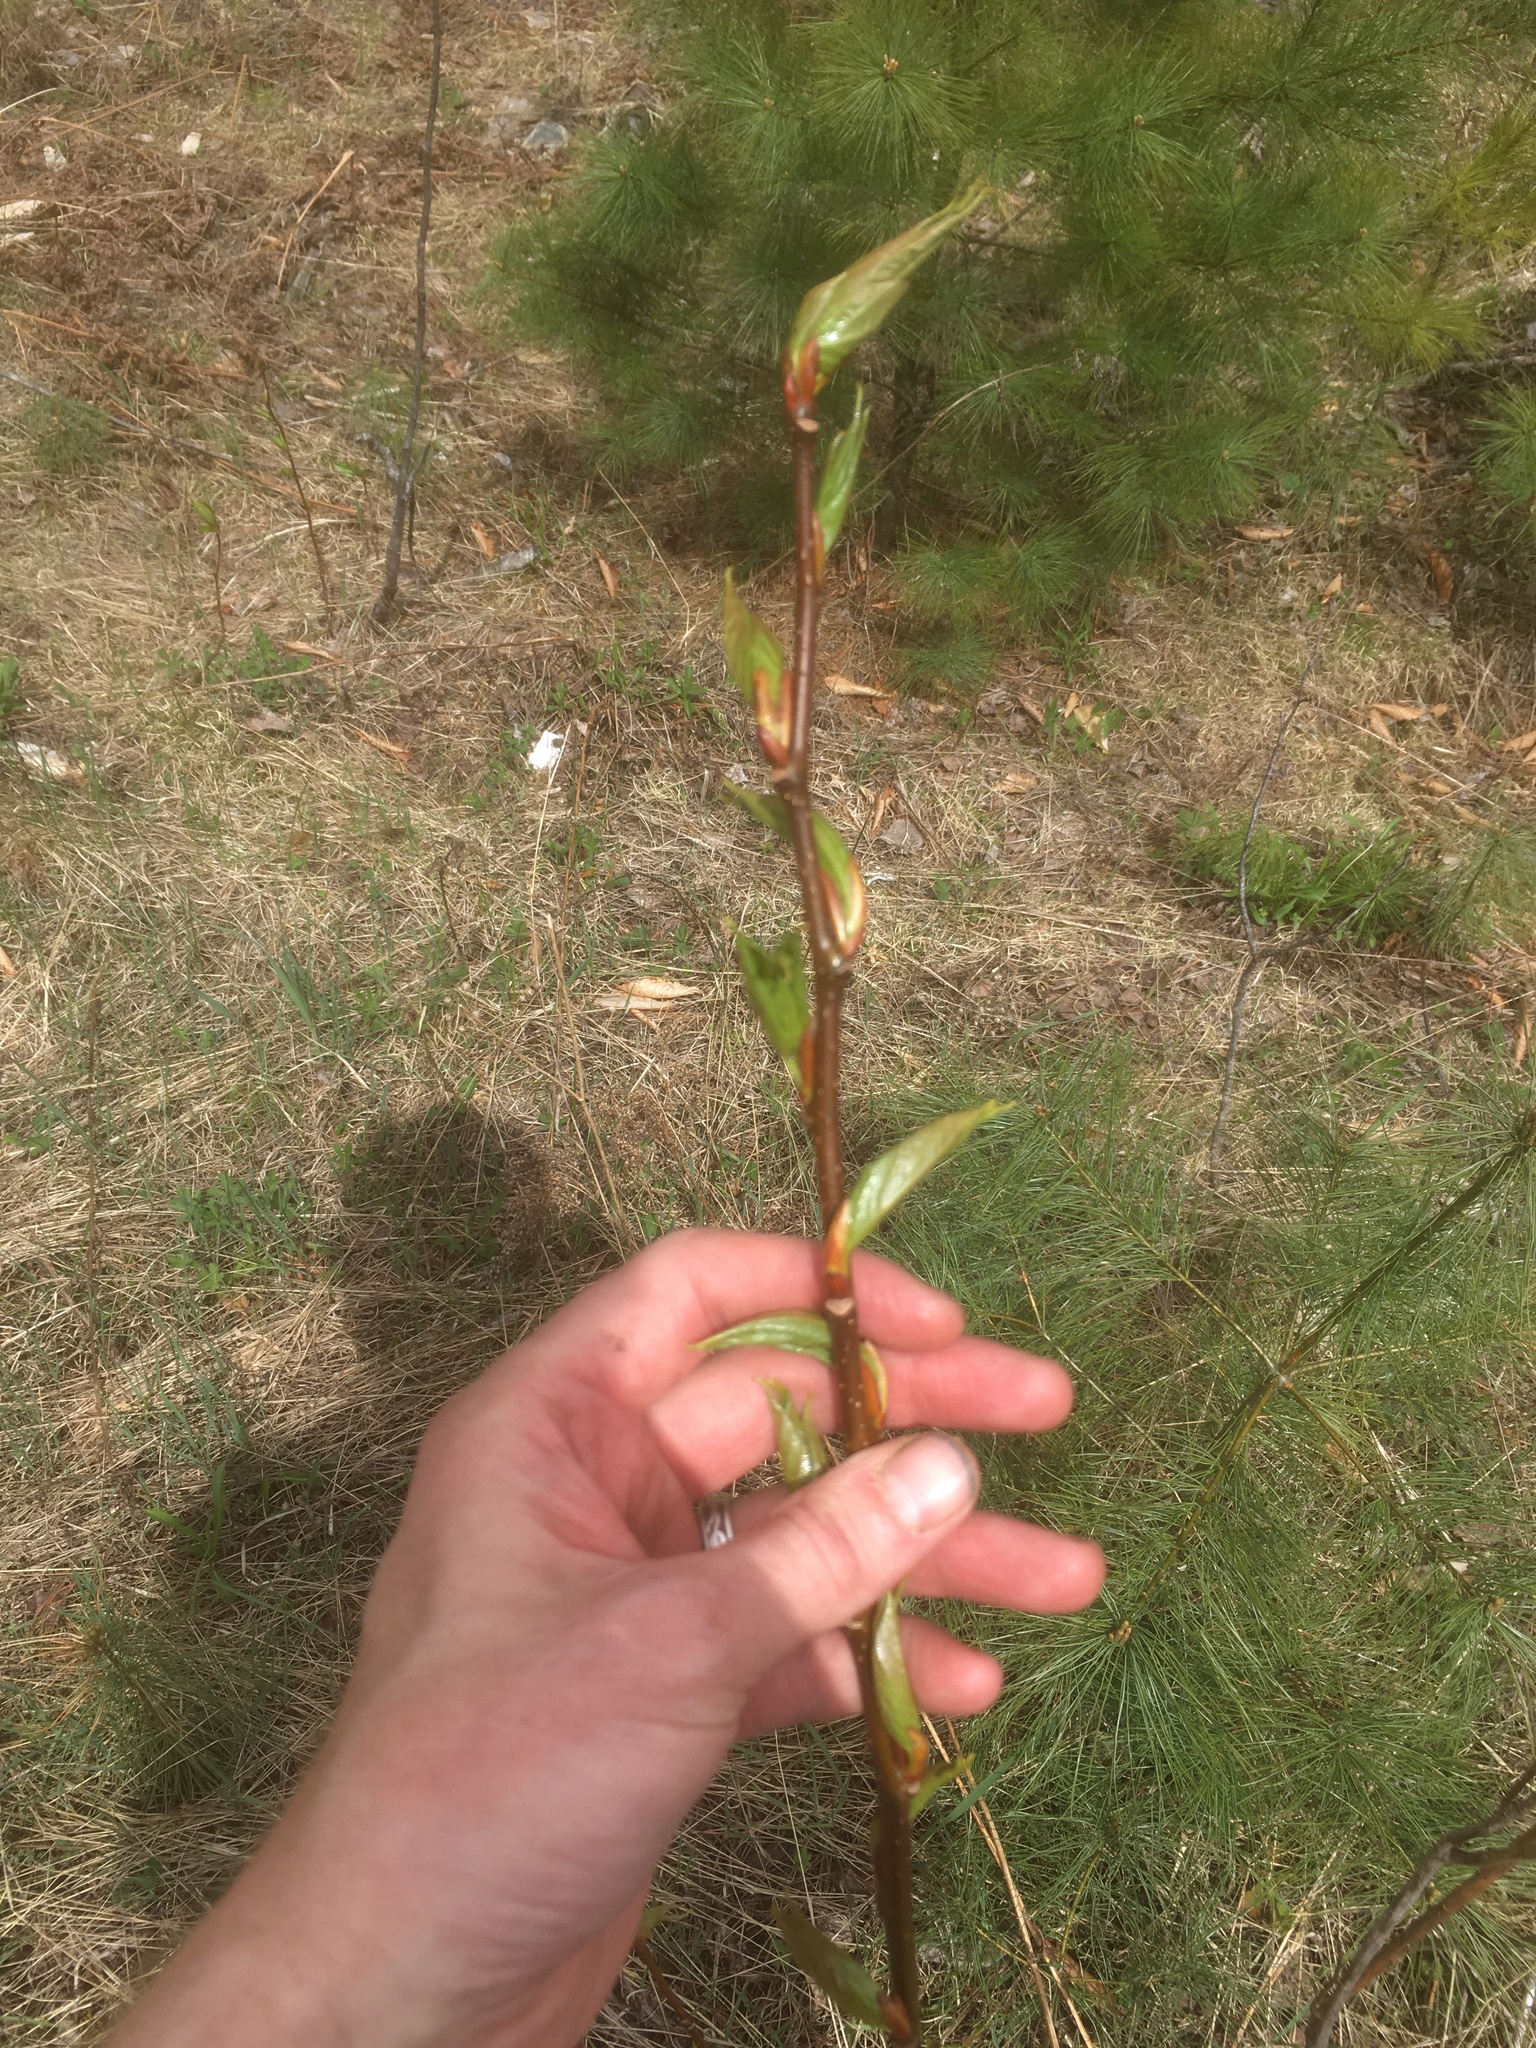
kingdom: Plantae
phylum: Tracheophyta
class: Magnoliopsida
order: Malpighiales
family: Salicaceae
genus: Populus
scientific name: Populus balsamifera
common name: Balsam poplar
